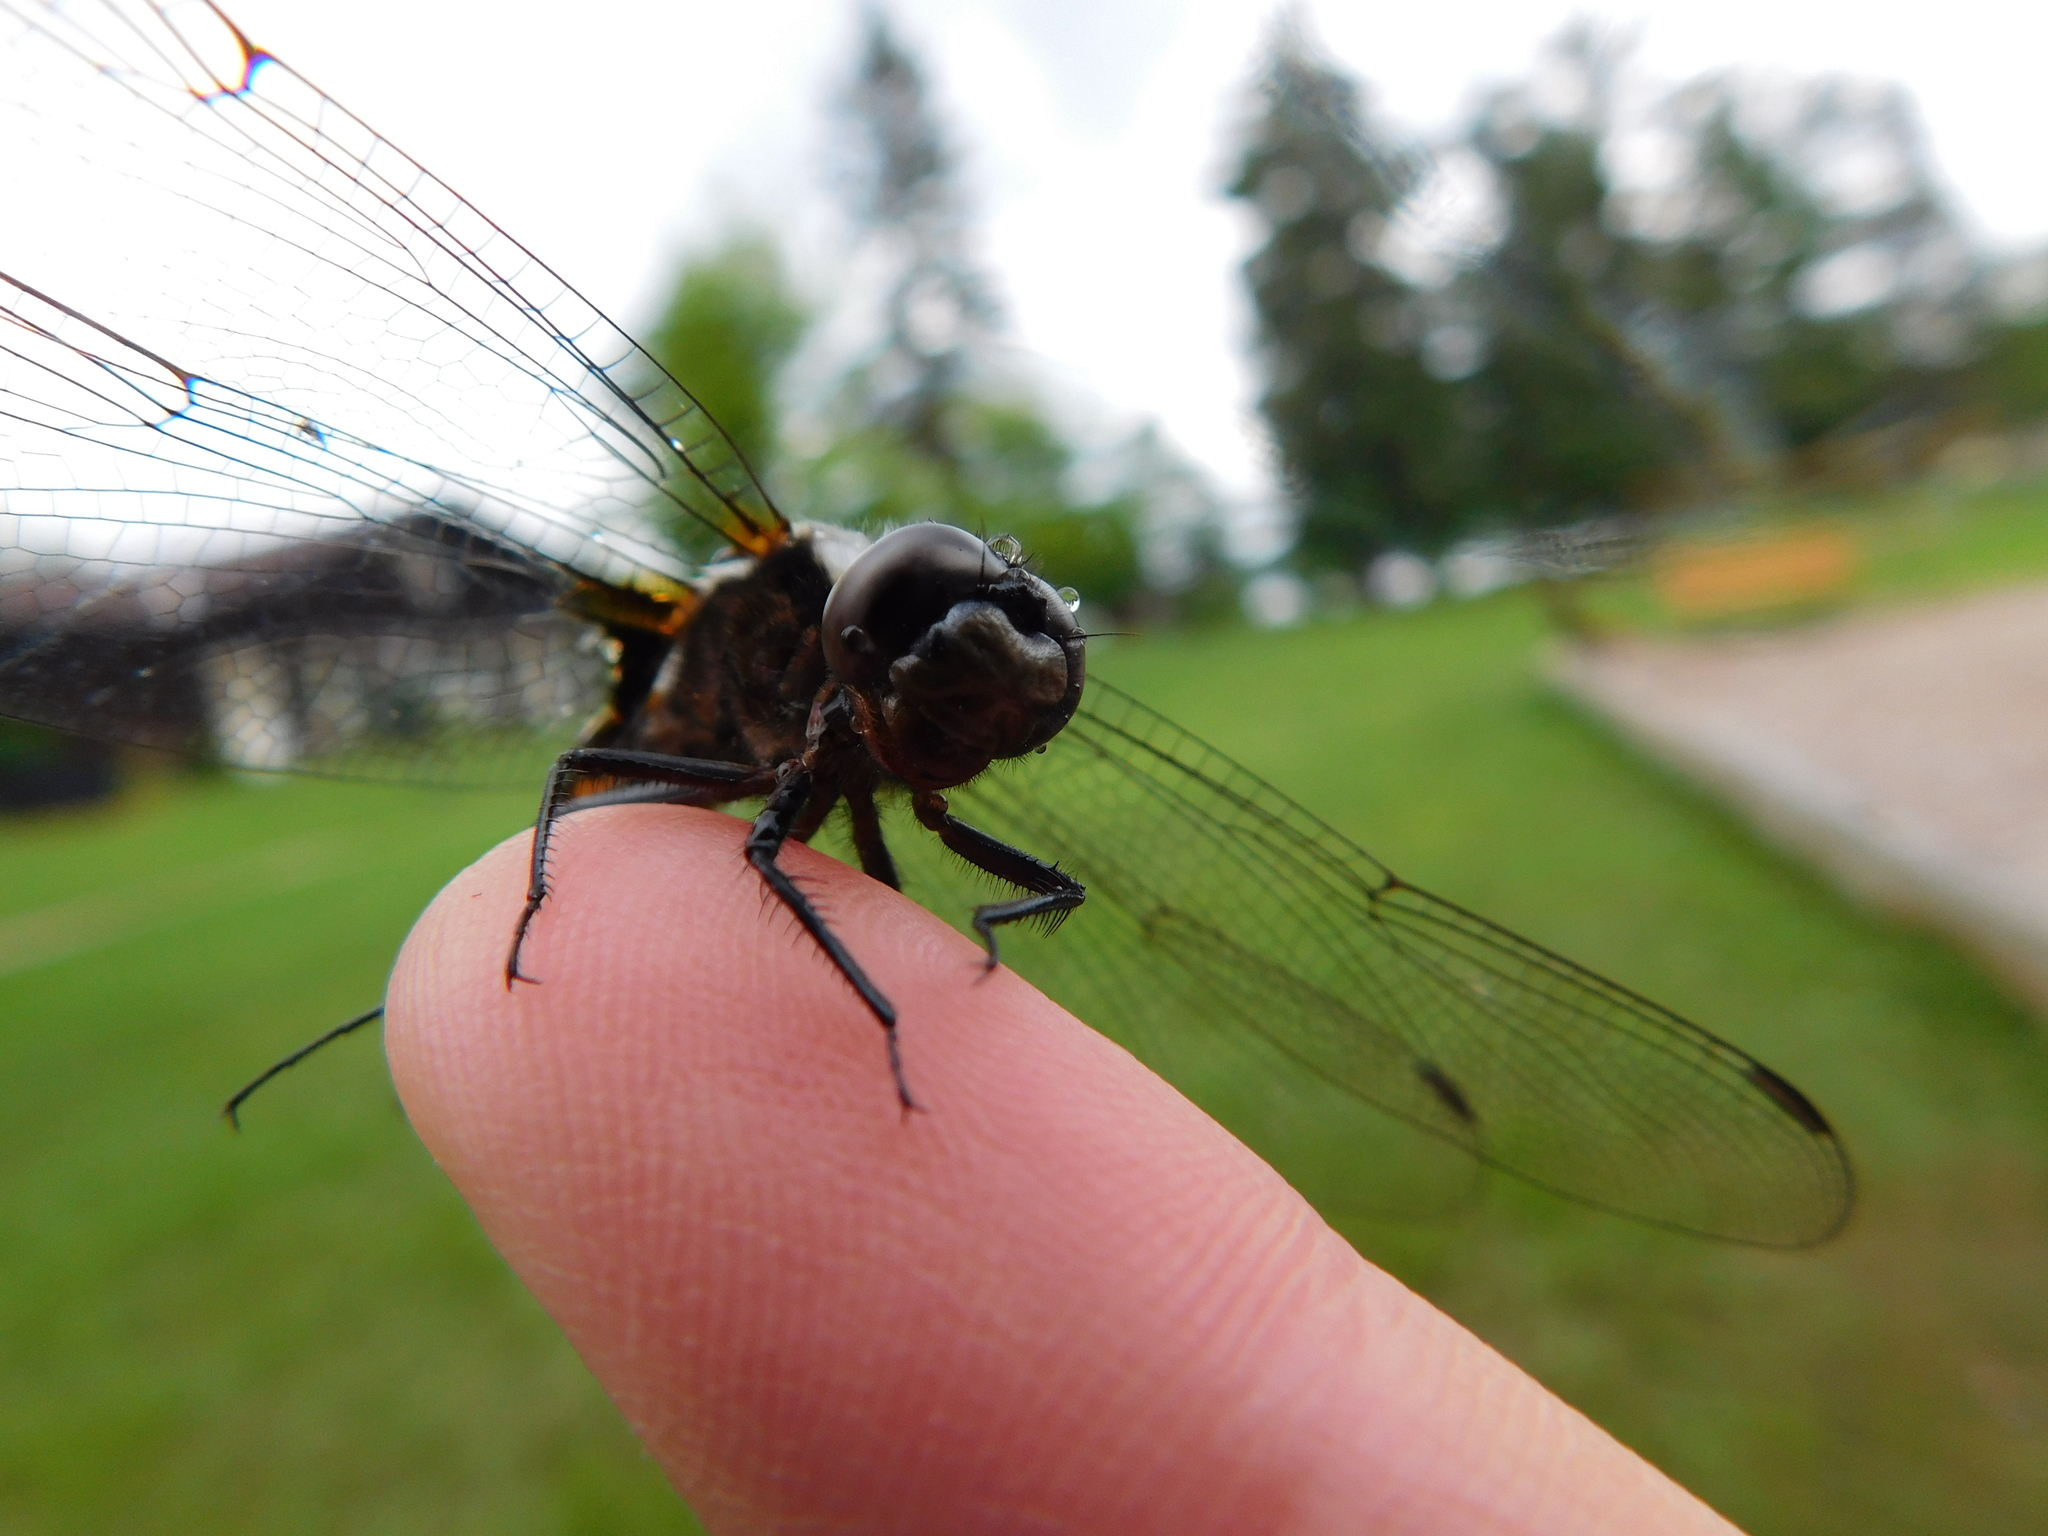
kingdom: Animalia
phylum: Arthropoda
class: Insecta
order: Odonata
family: Libellulidae
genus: Ladona
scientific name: Ladona julia
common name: Chalk-fronted corporal
